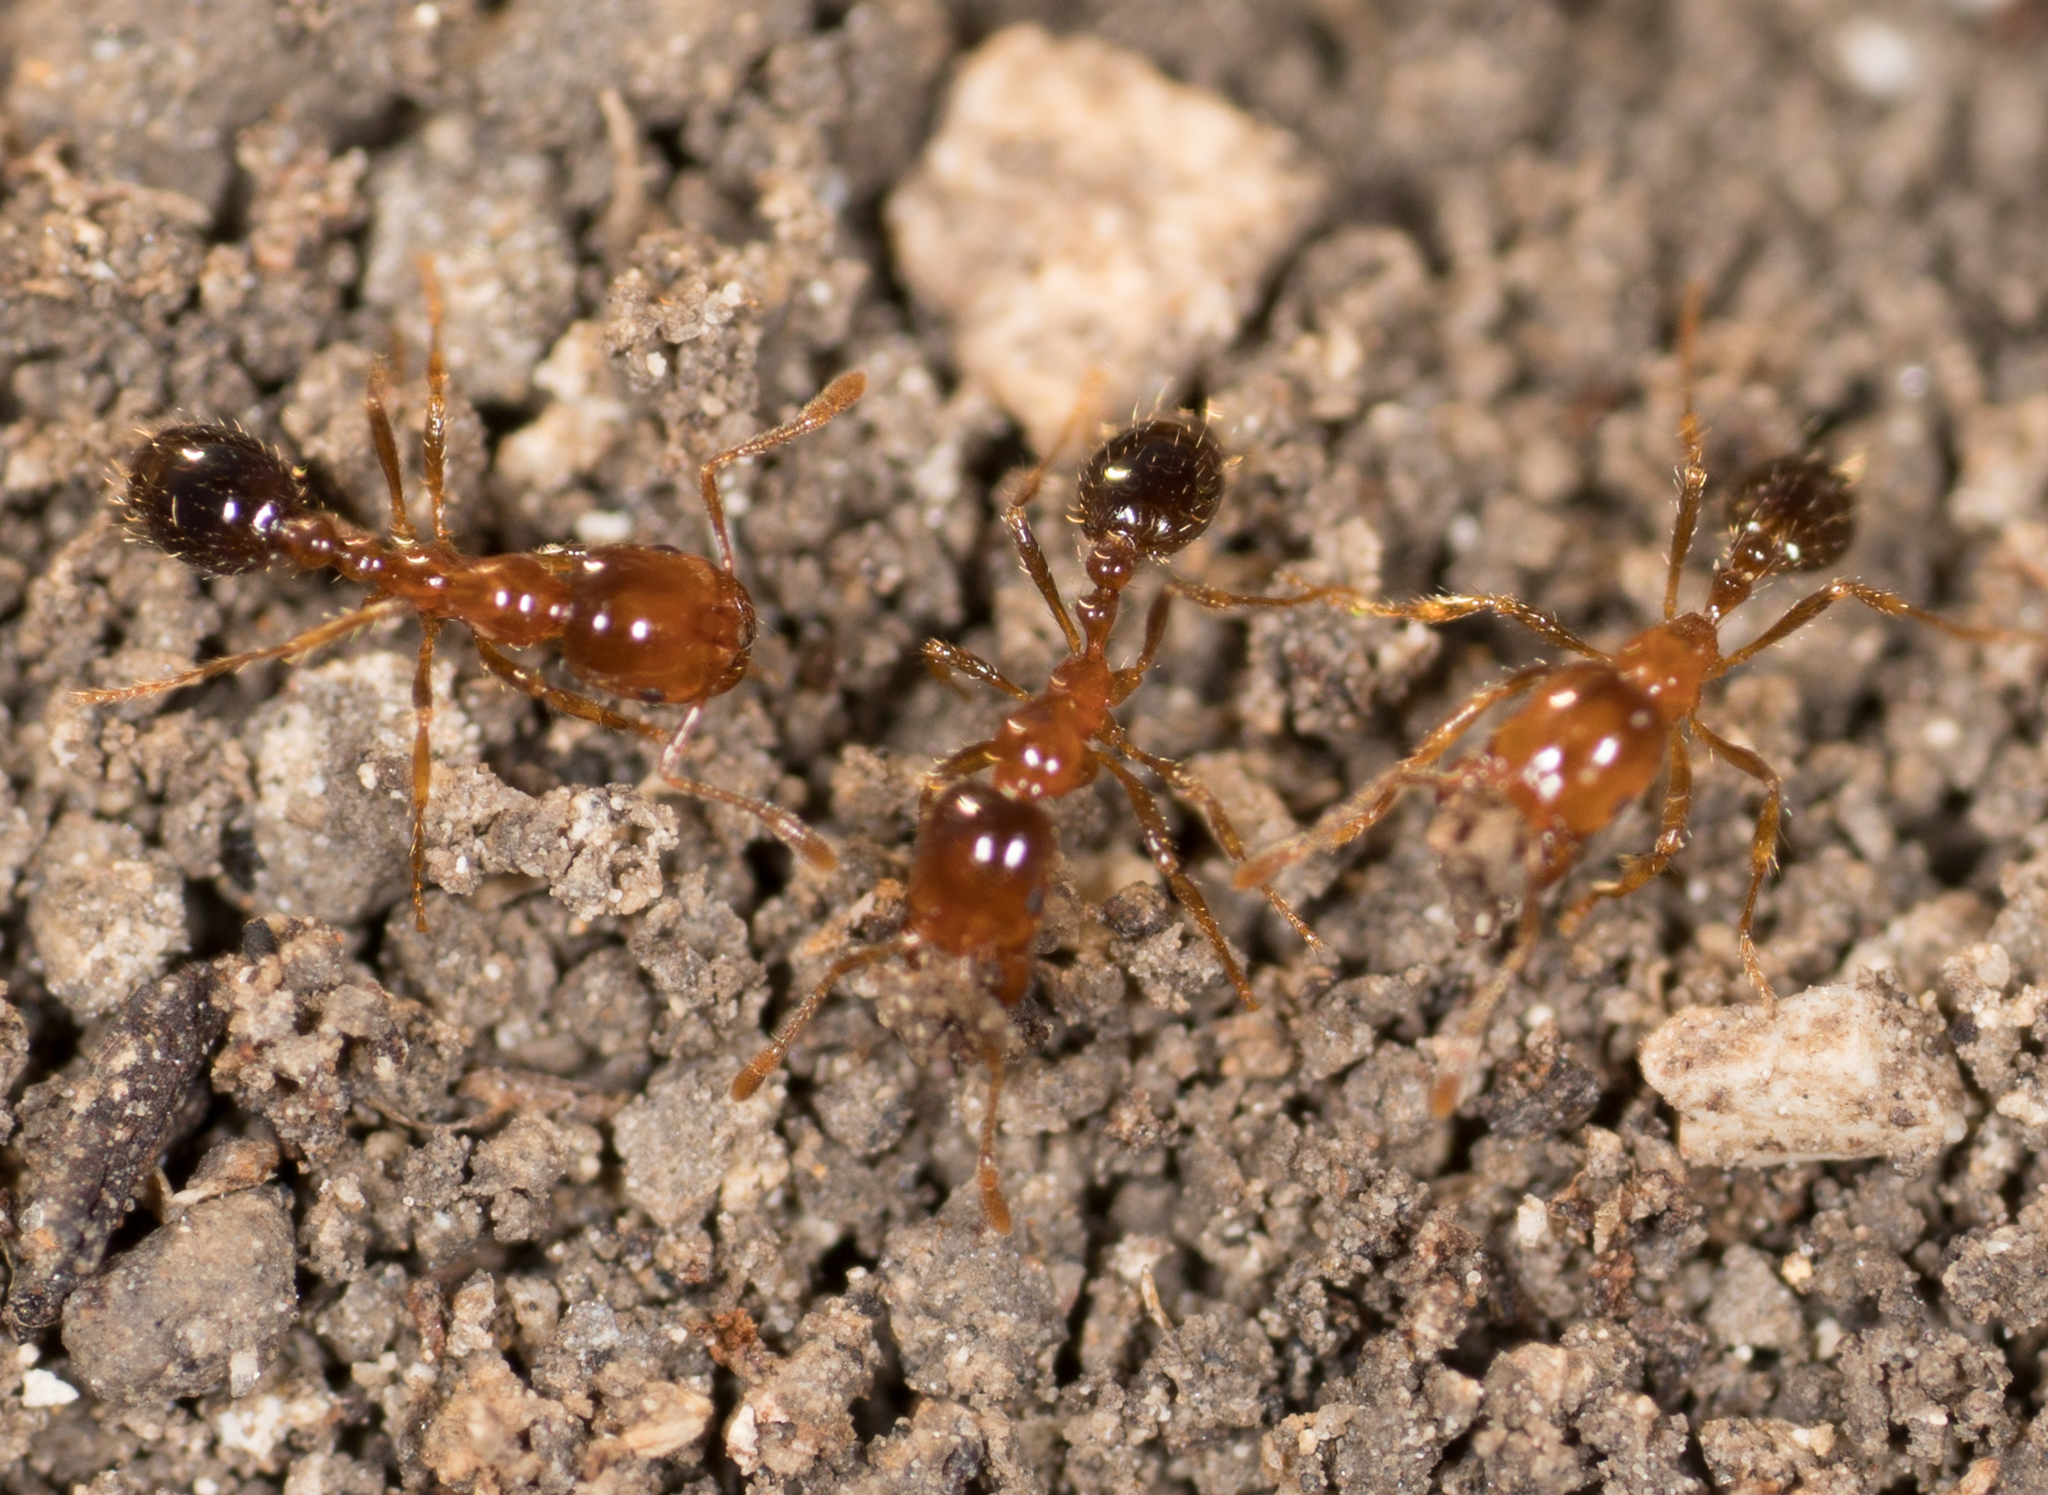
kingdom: Animalia
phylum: Arthropoda
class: Insecta
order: Hymenoptera
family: Formicidae
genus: Solenopsis
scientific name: Solenopsis xyloni
